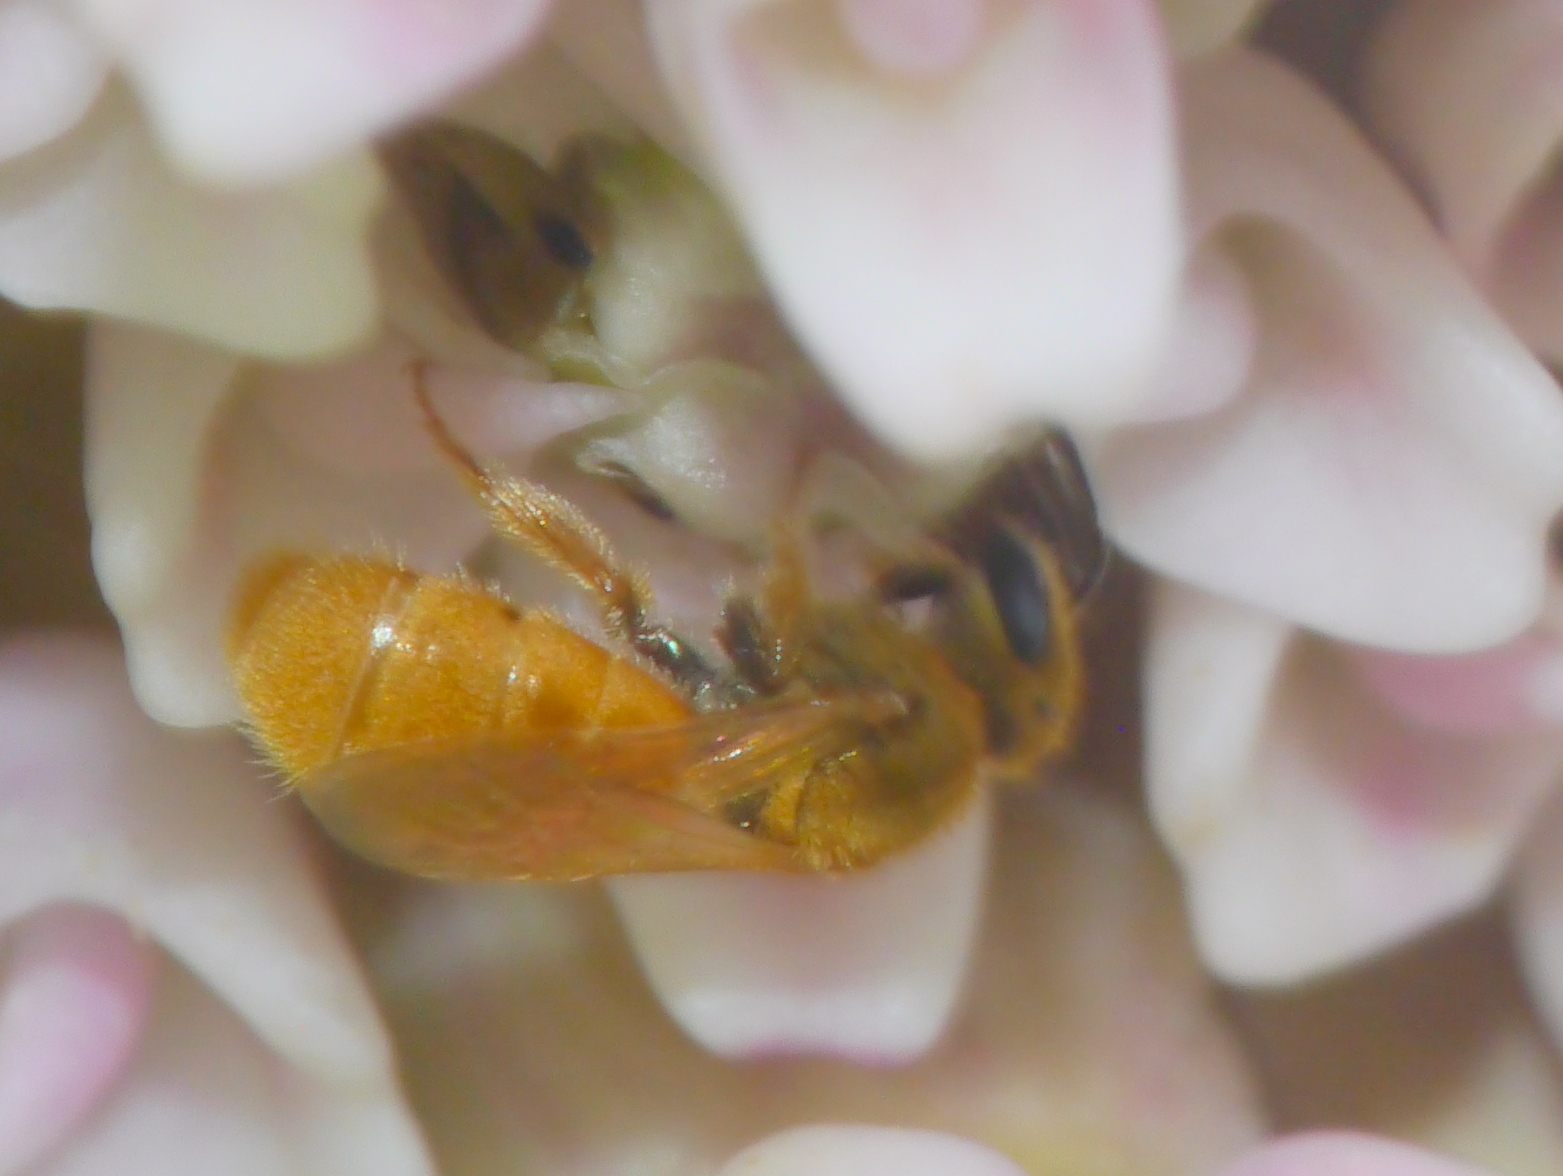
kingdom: Animalia
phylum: Arthropoda
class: Insecta
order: Hymenoptera
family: Halictidae
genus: Lasioglossum
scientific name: Lasioglossum vierecki
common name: Viereck's sweat bee
